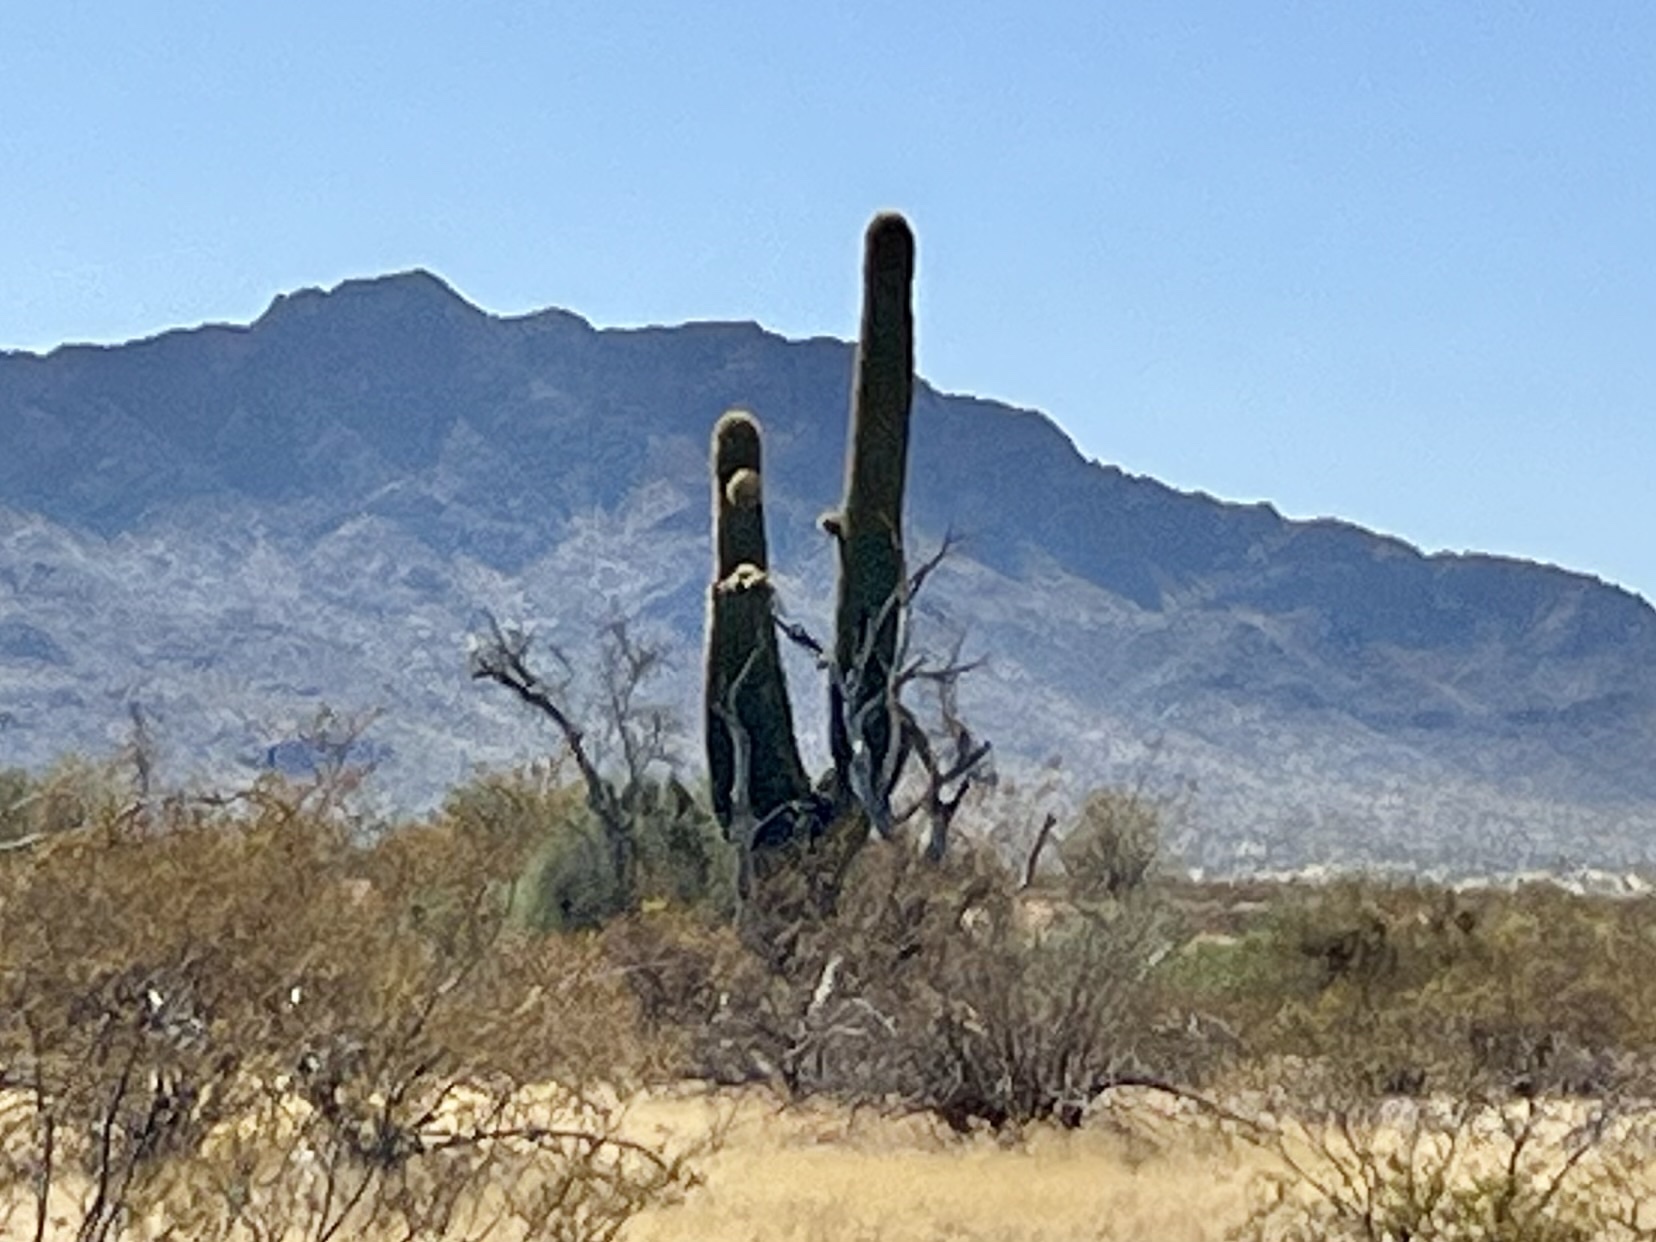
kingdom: Plantae
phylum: Tracheophyta
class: Magnoliopsida
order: Caryophyllales
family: Cactaceae
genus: Carnegiea
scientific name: Carnegiea gigantea
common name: Saguaro
